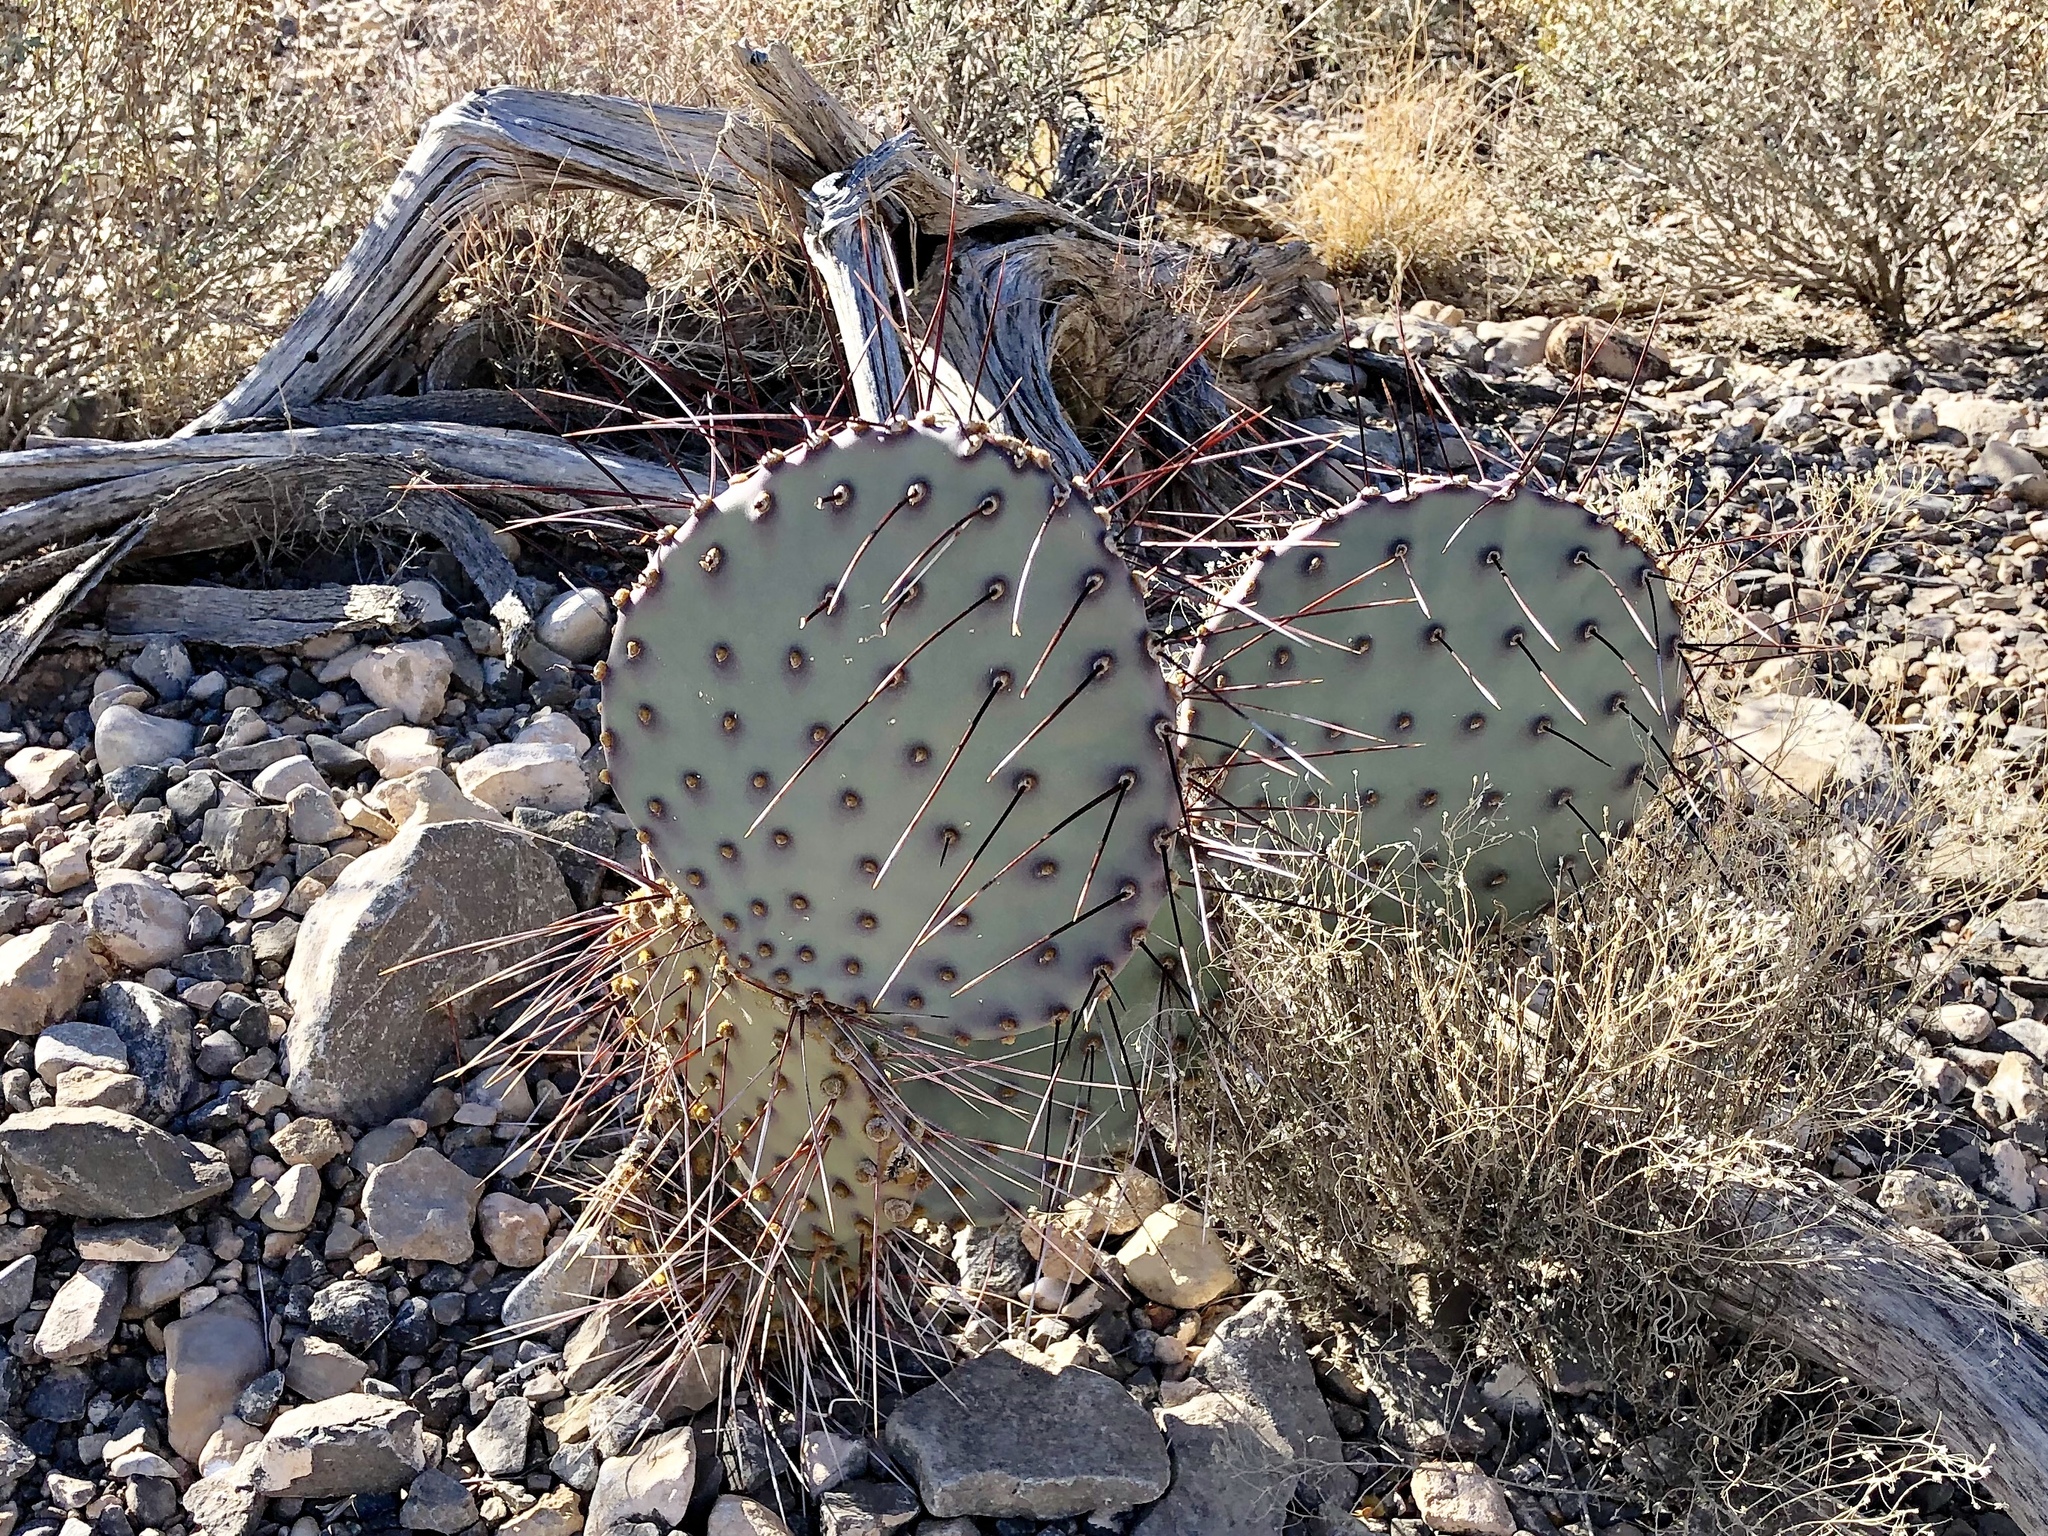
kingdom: Plantae
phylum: Tracheophyta
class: Magnoliopsida
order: Caryophyllales
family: Cactaceae
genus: Opuntia
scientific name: Opuntia macrocentra
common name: Purple prickly-pear
